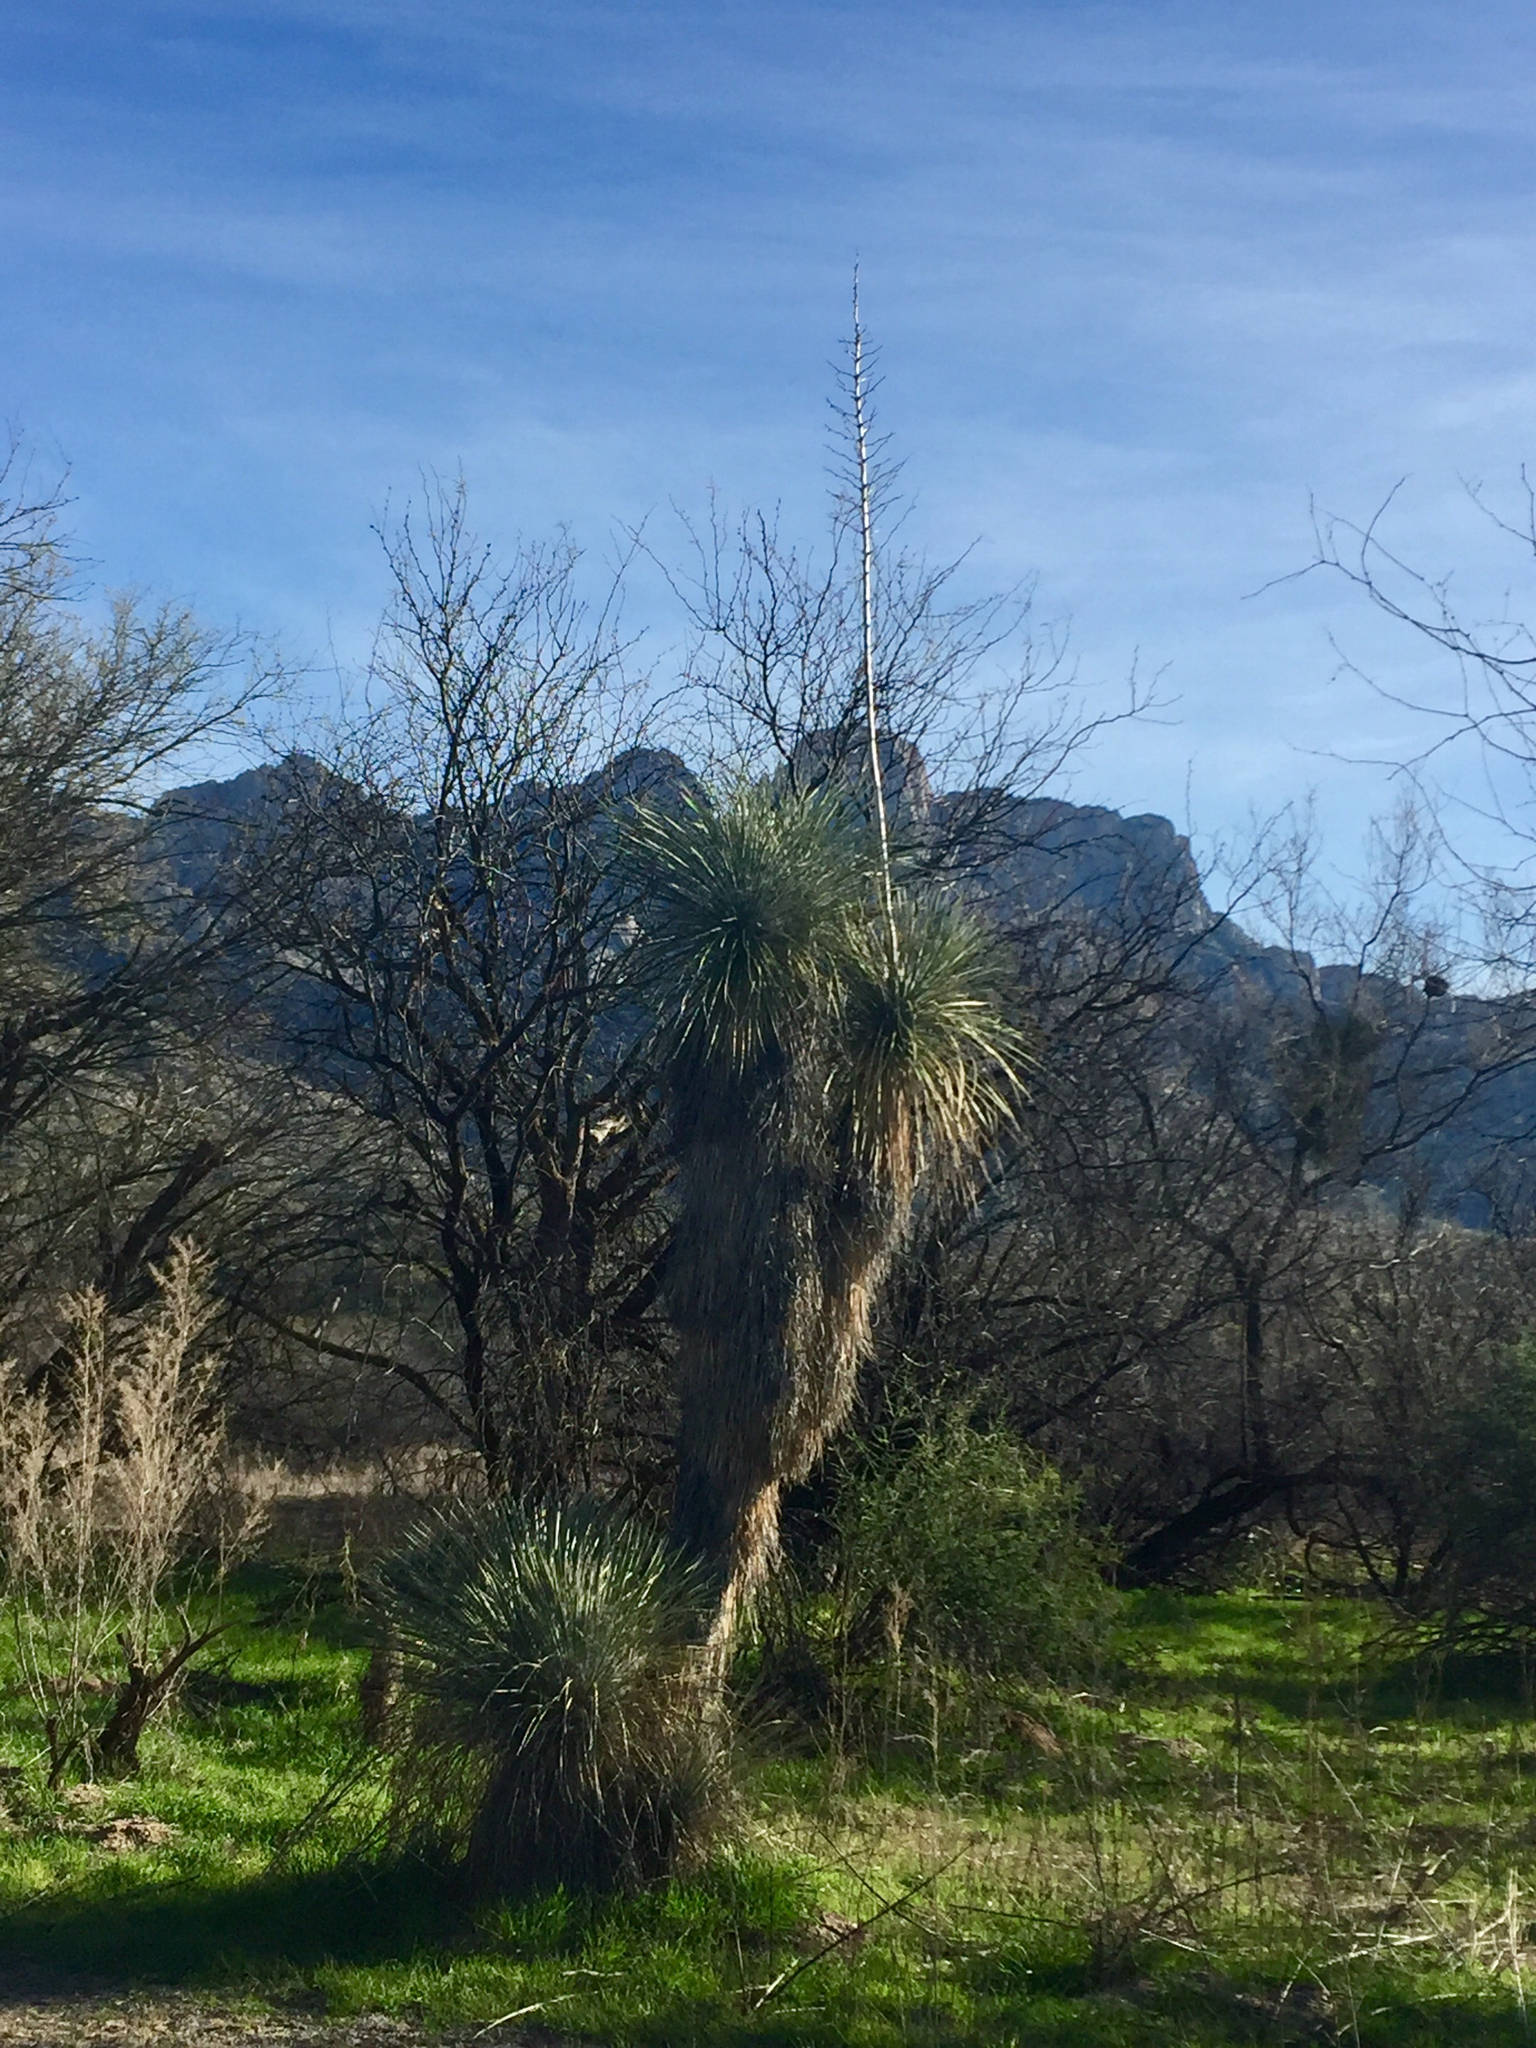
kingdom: Plantae
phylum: Tracheophyta
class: Liliopsida
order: Asparagales
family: Asparagaceae
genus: Yucca
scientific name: Yucca elata
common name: Palmella
